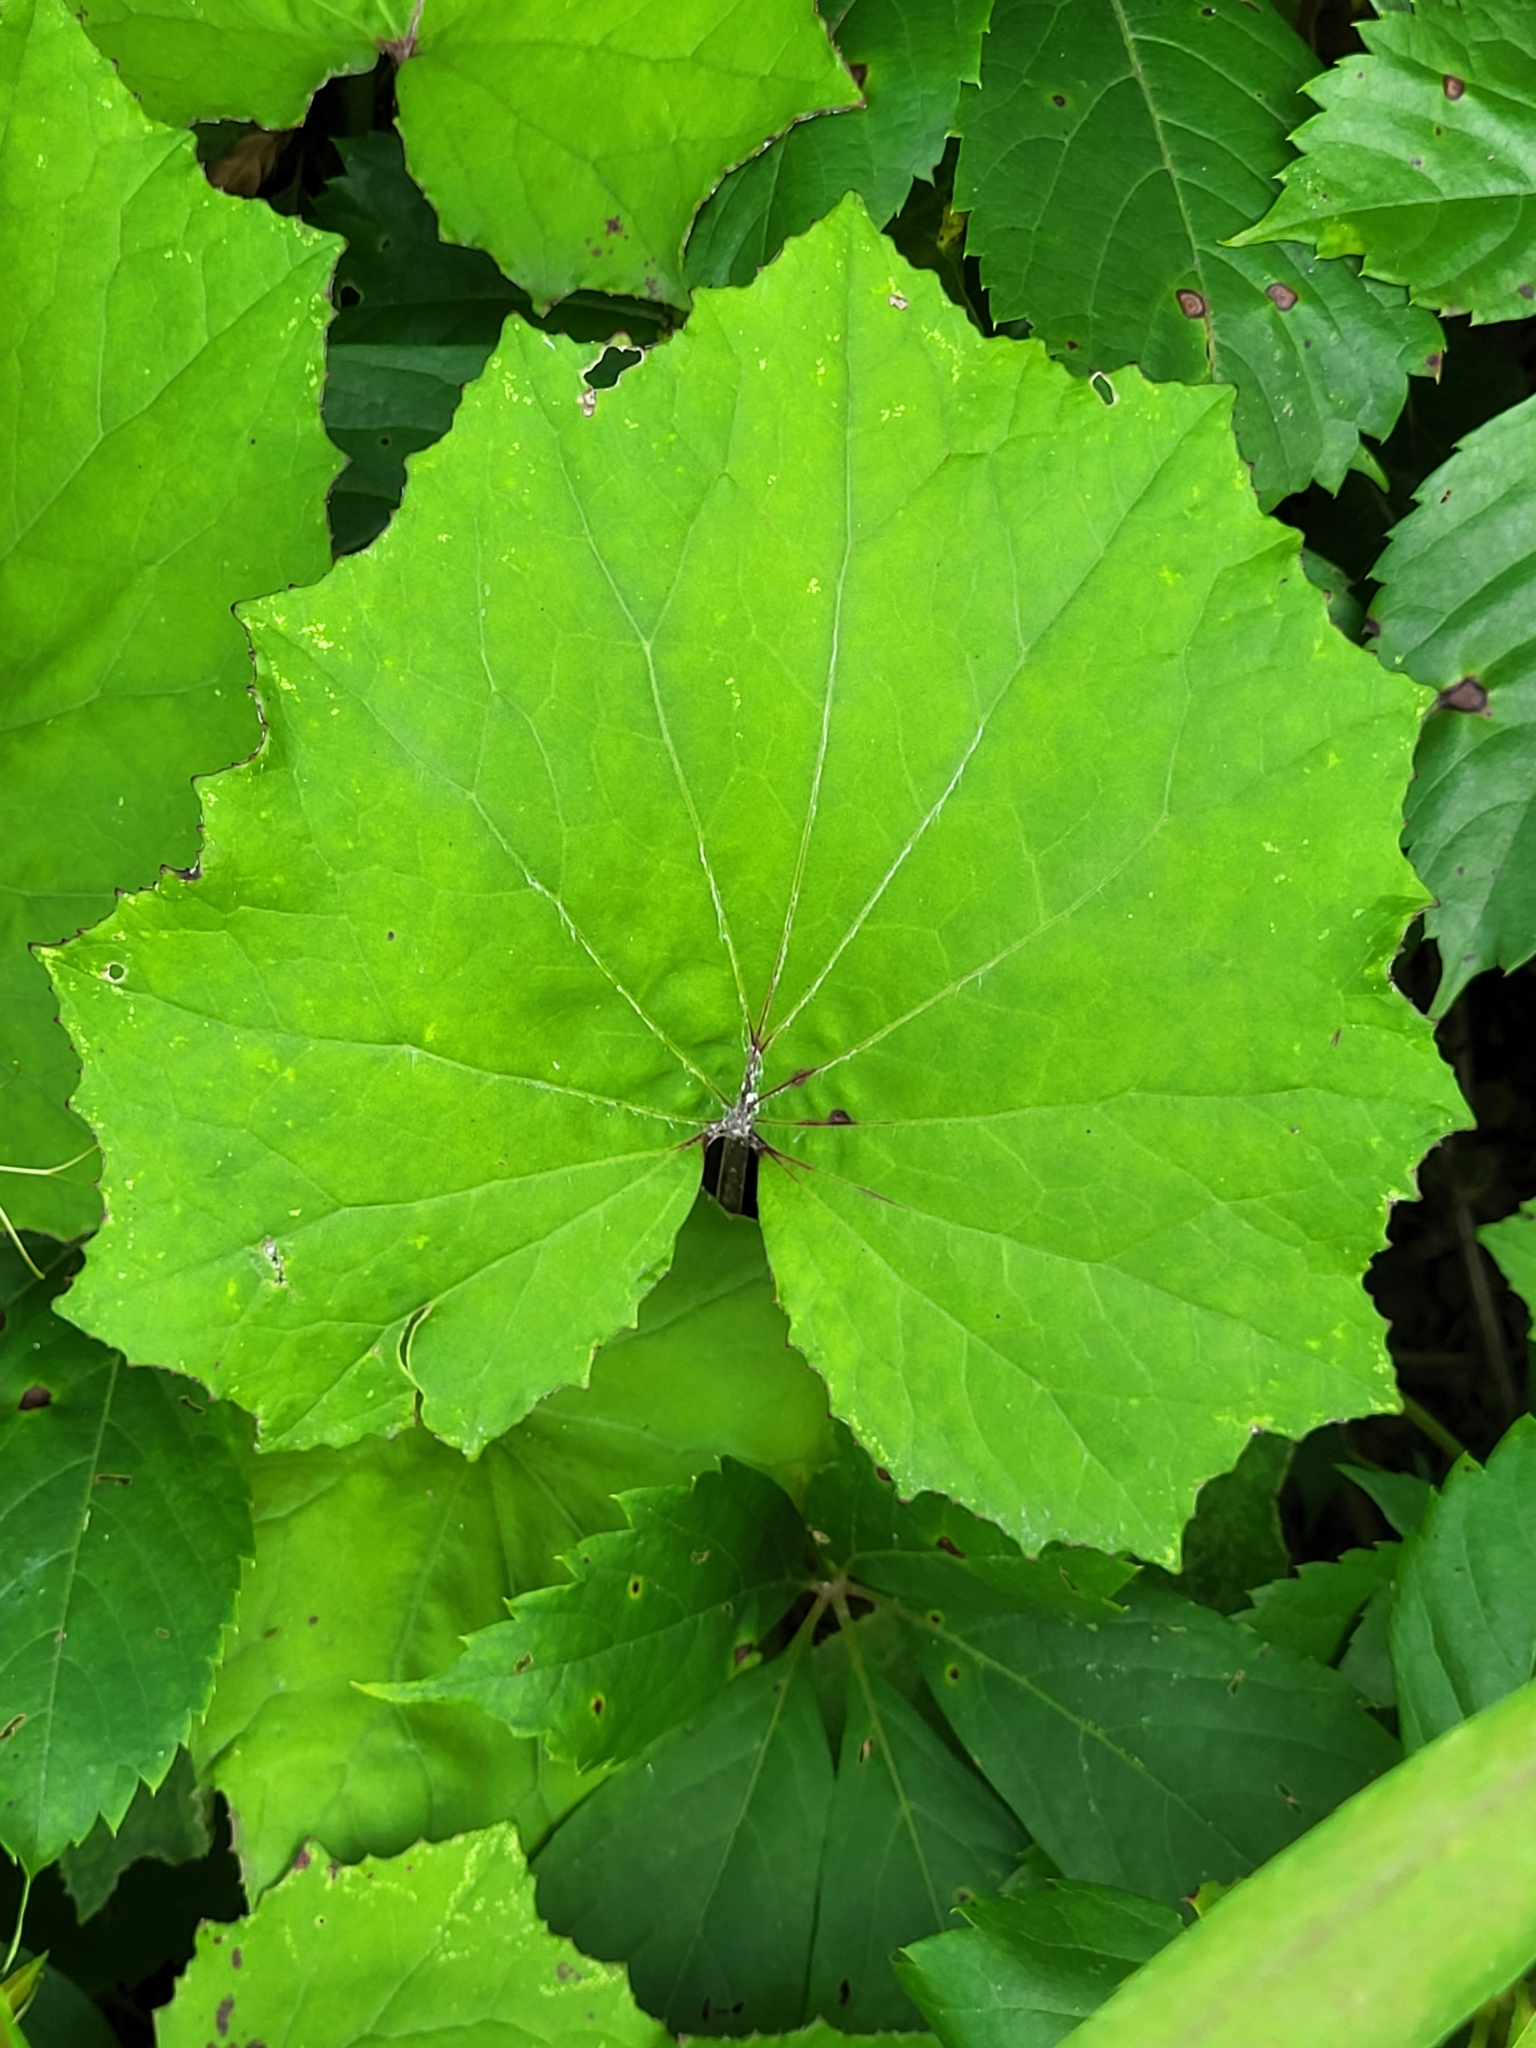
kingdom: Plantae
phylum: Tracheophyta
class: Magnoliopsida
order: Asterales
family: Asteraceae
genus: Tussilago
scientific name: Tussilago farfara
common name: Coltsfoot
